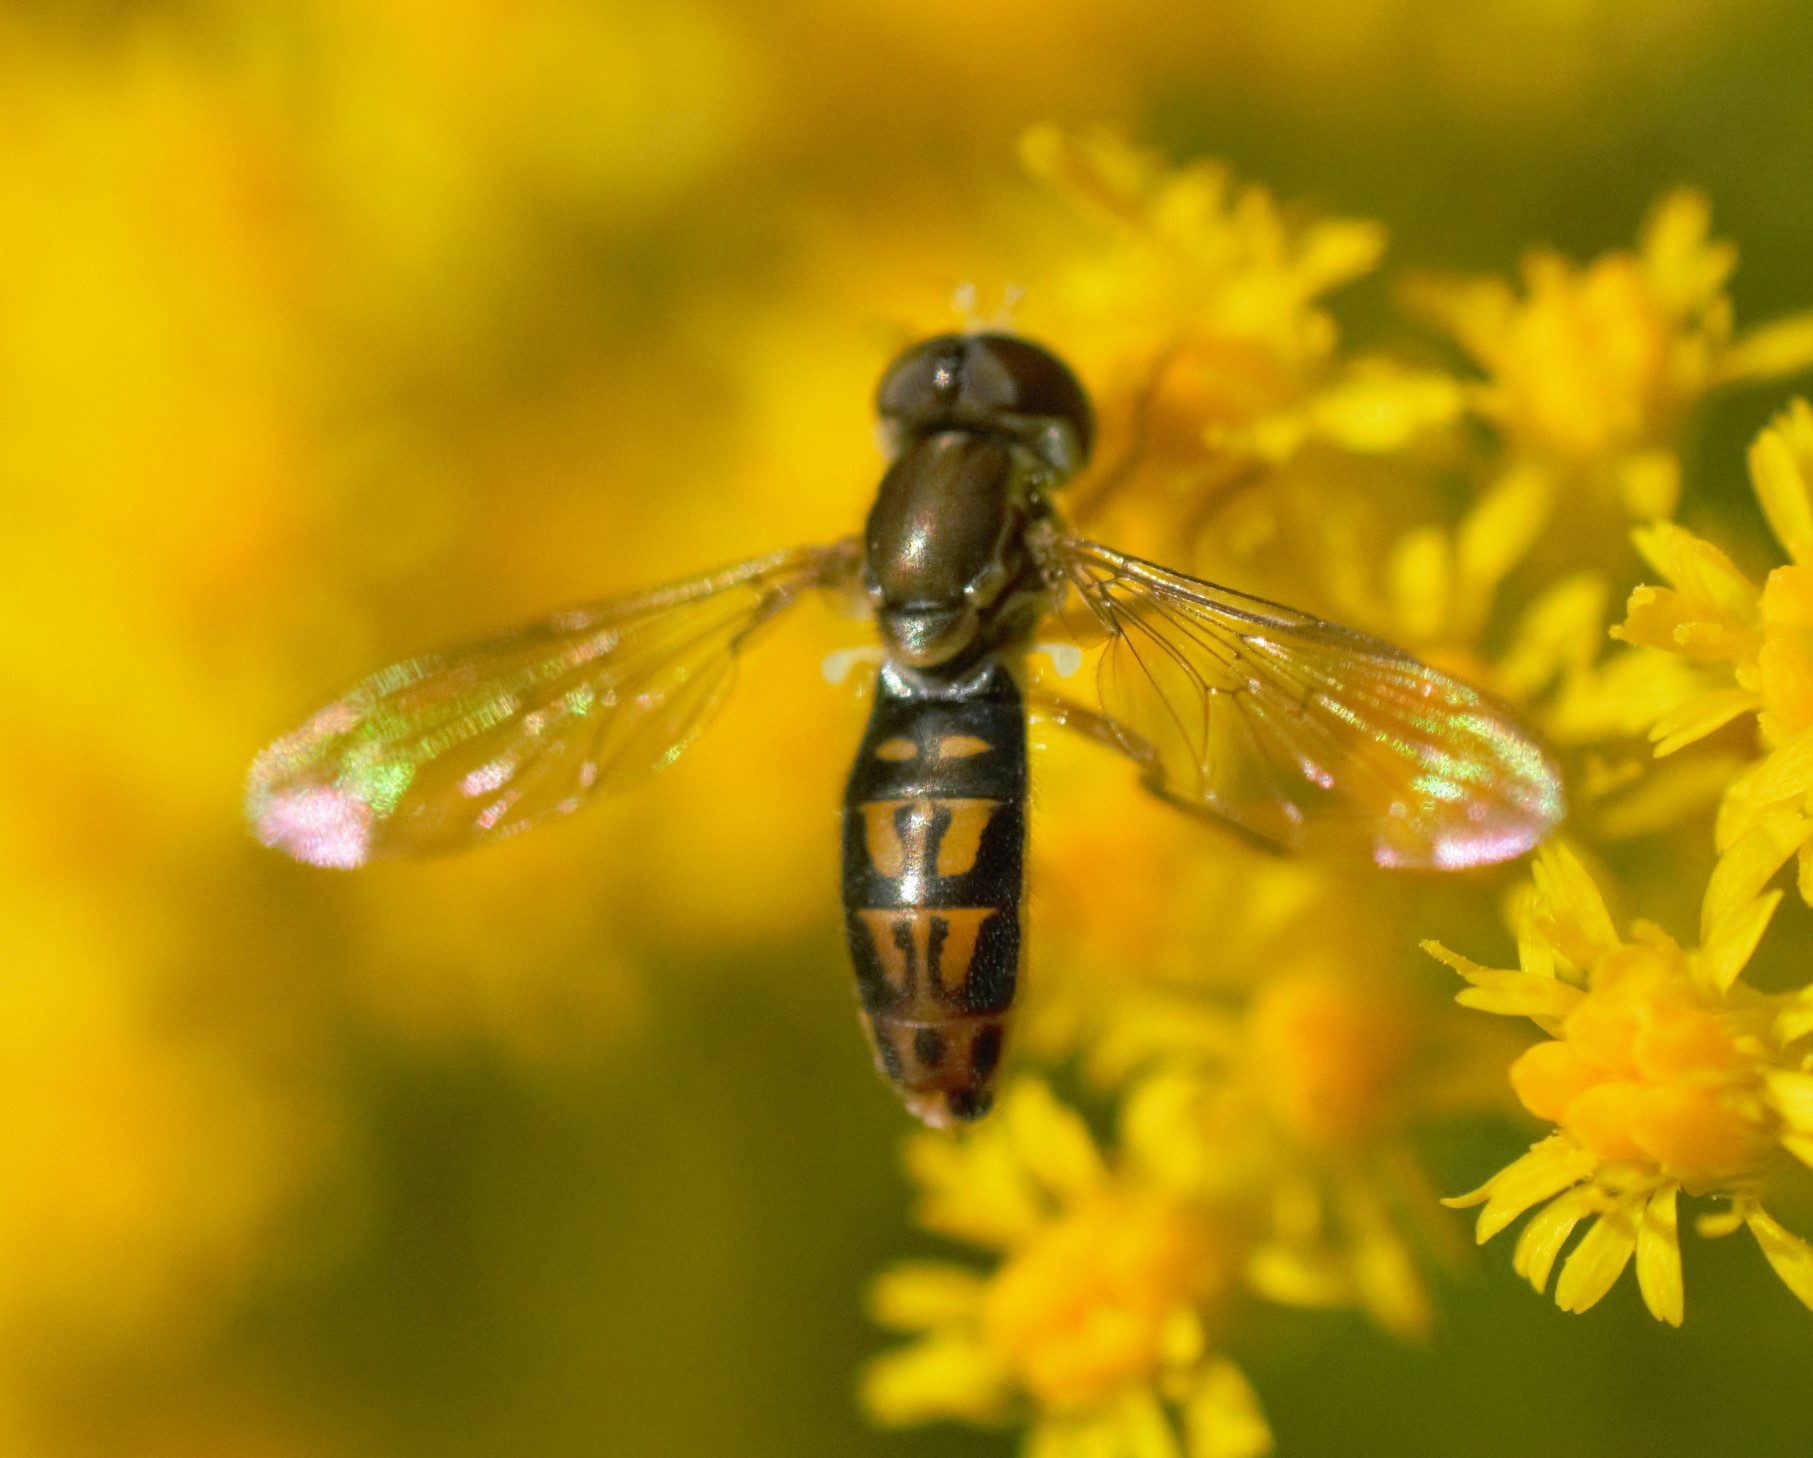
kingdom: Animalia
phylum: Arthropoda
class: Insecta
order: Diptera
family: Syrphidae
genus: Toxomerus
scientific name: Toxomerus marginatus
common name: Syrphid fly
